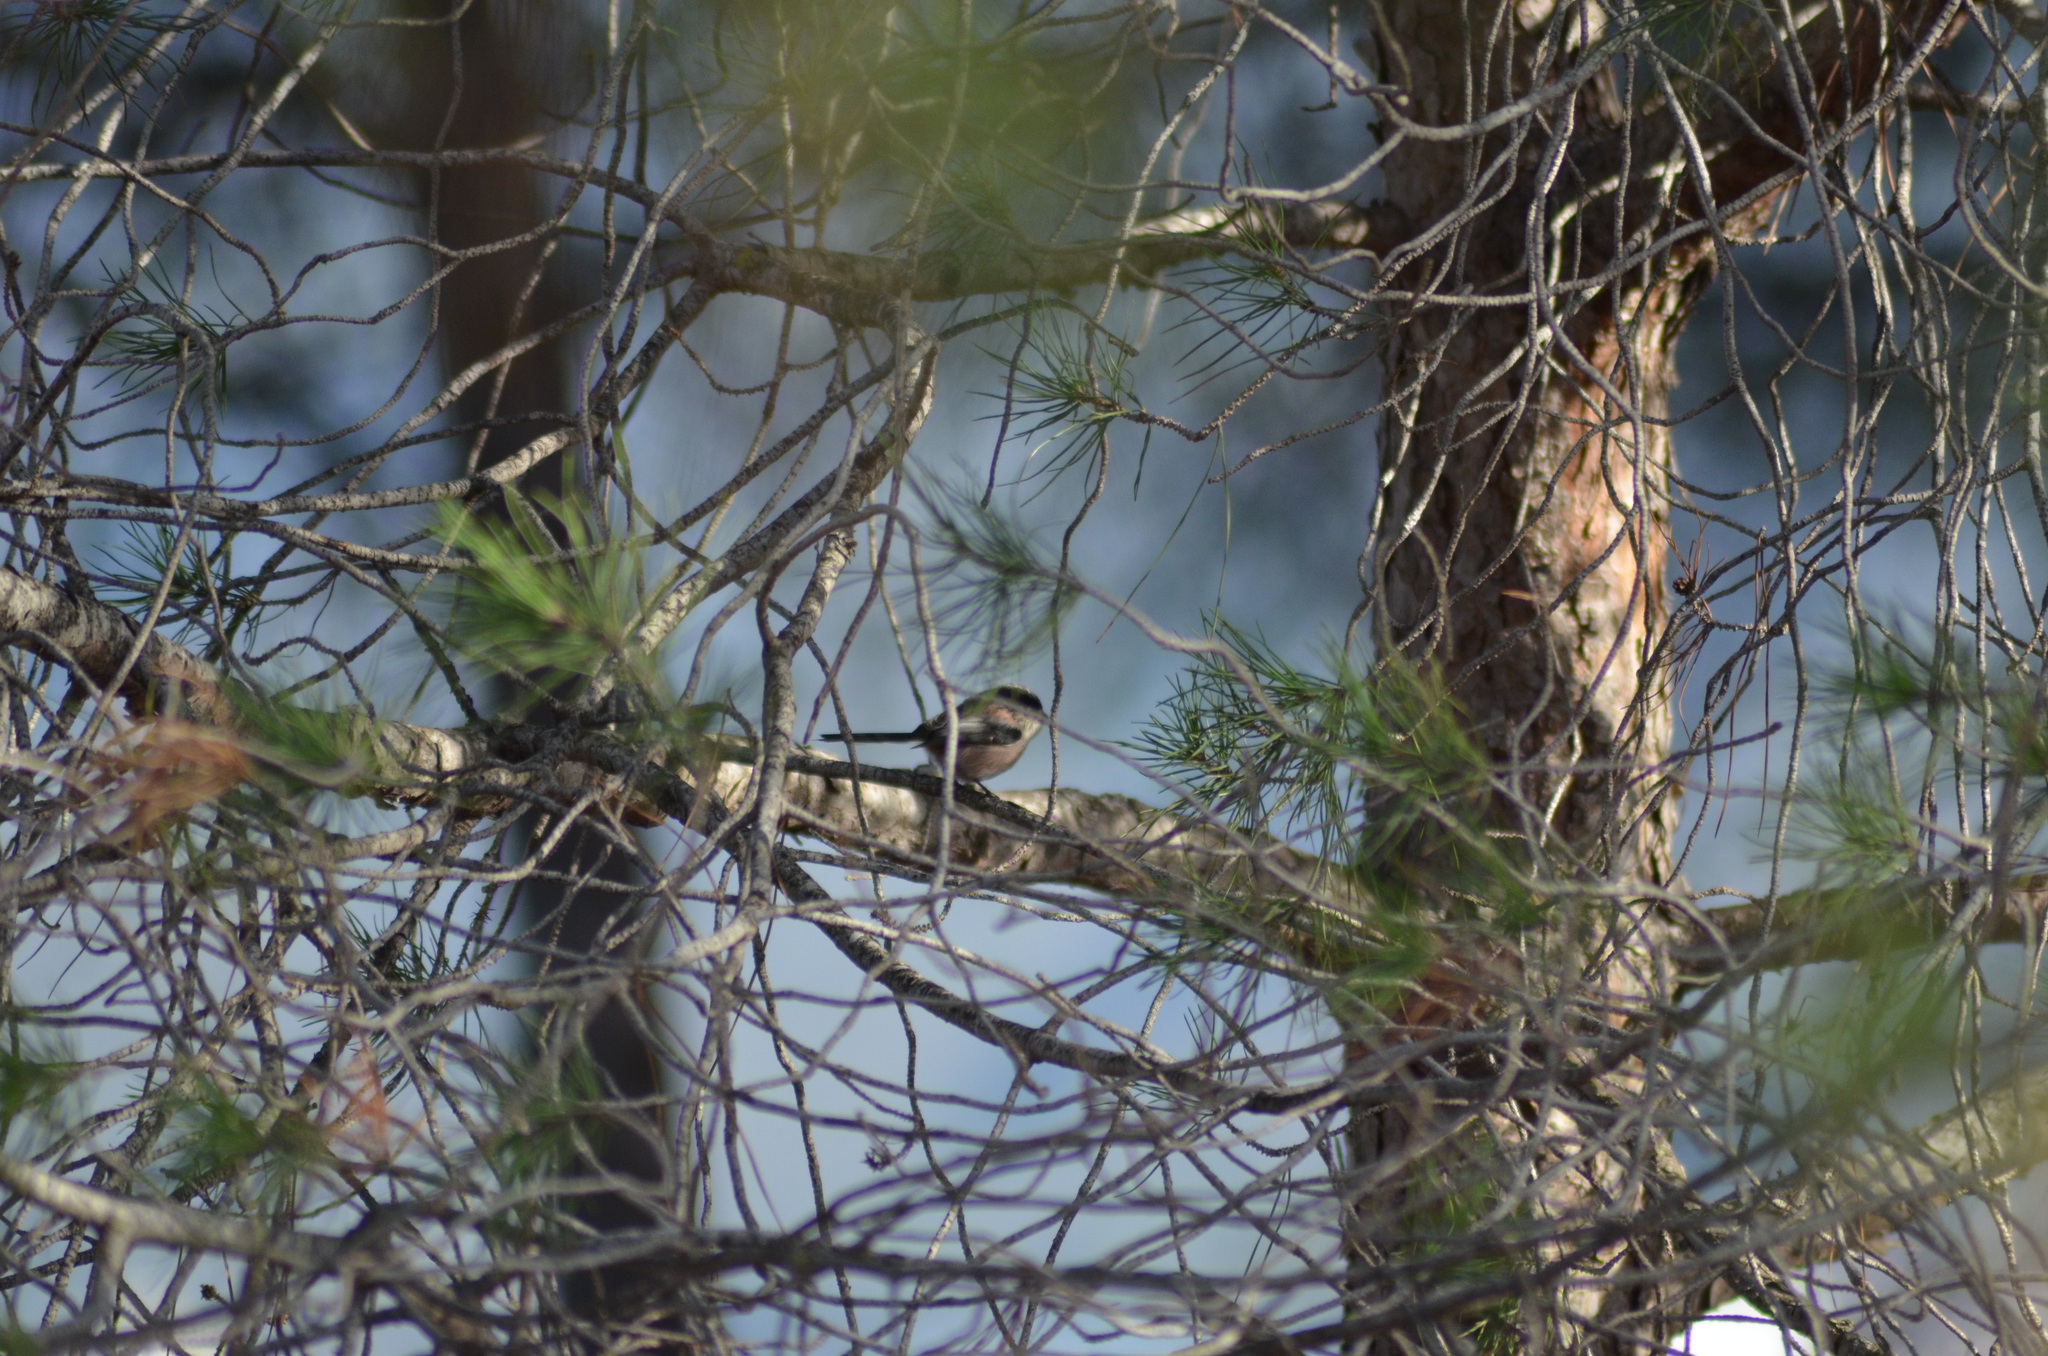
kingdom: Animalia
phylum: Chordata
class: Aves
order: Passeriformes
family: Aegithalidae
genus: Aegithalos
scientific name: Aegithalos caudatus
